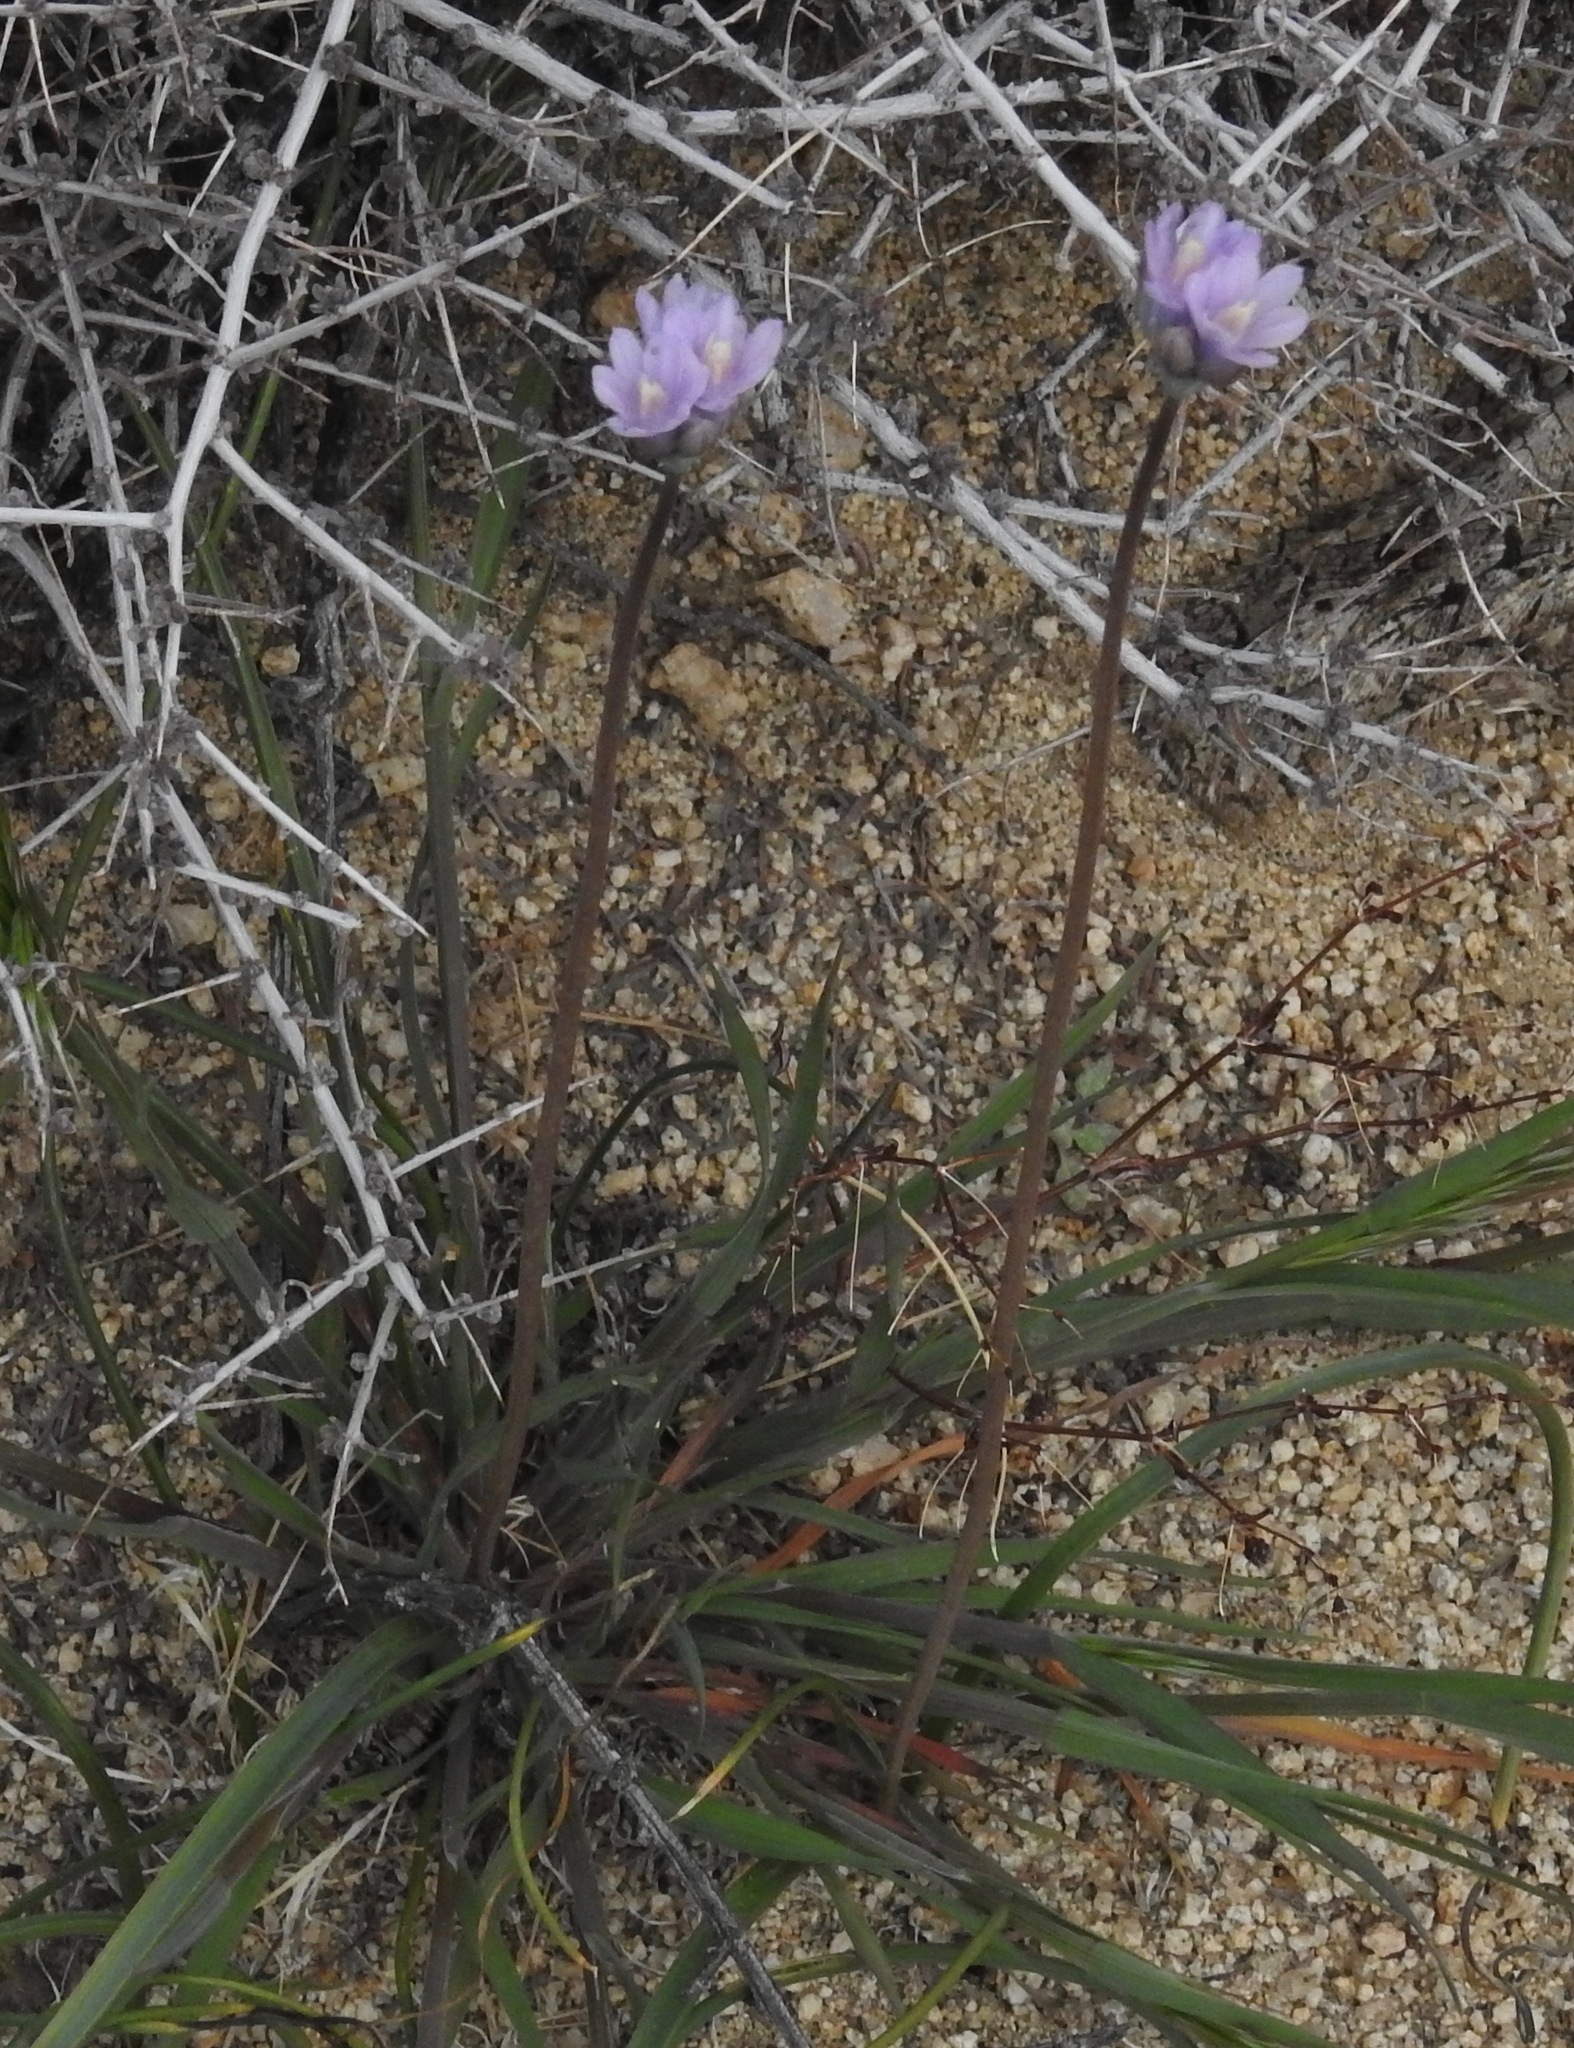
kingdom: Plantae
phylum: Tracheophyta
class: Liliopsida
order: Asparagales
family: Asparagaceae
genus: Dipterostemon
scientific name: Dipterostemon capitatus
